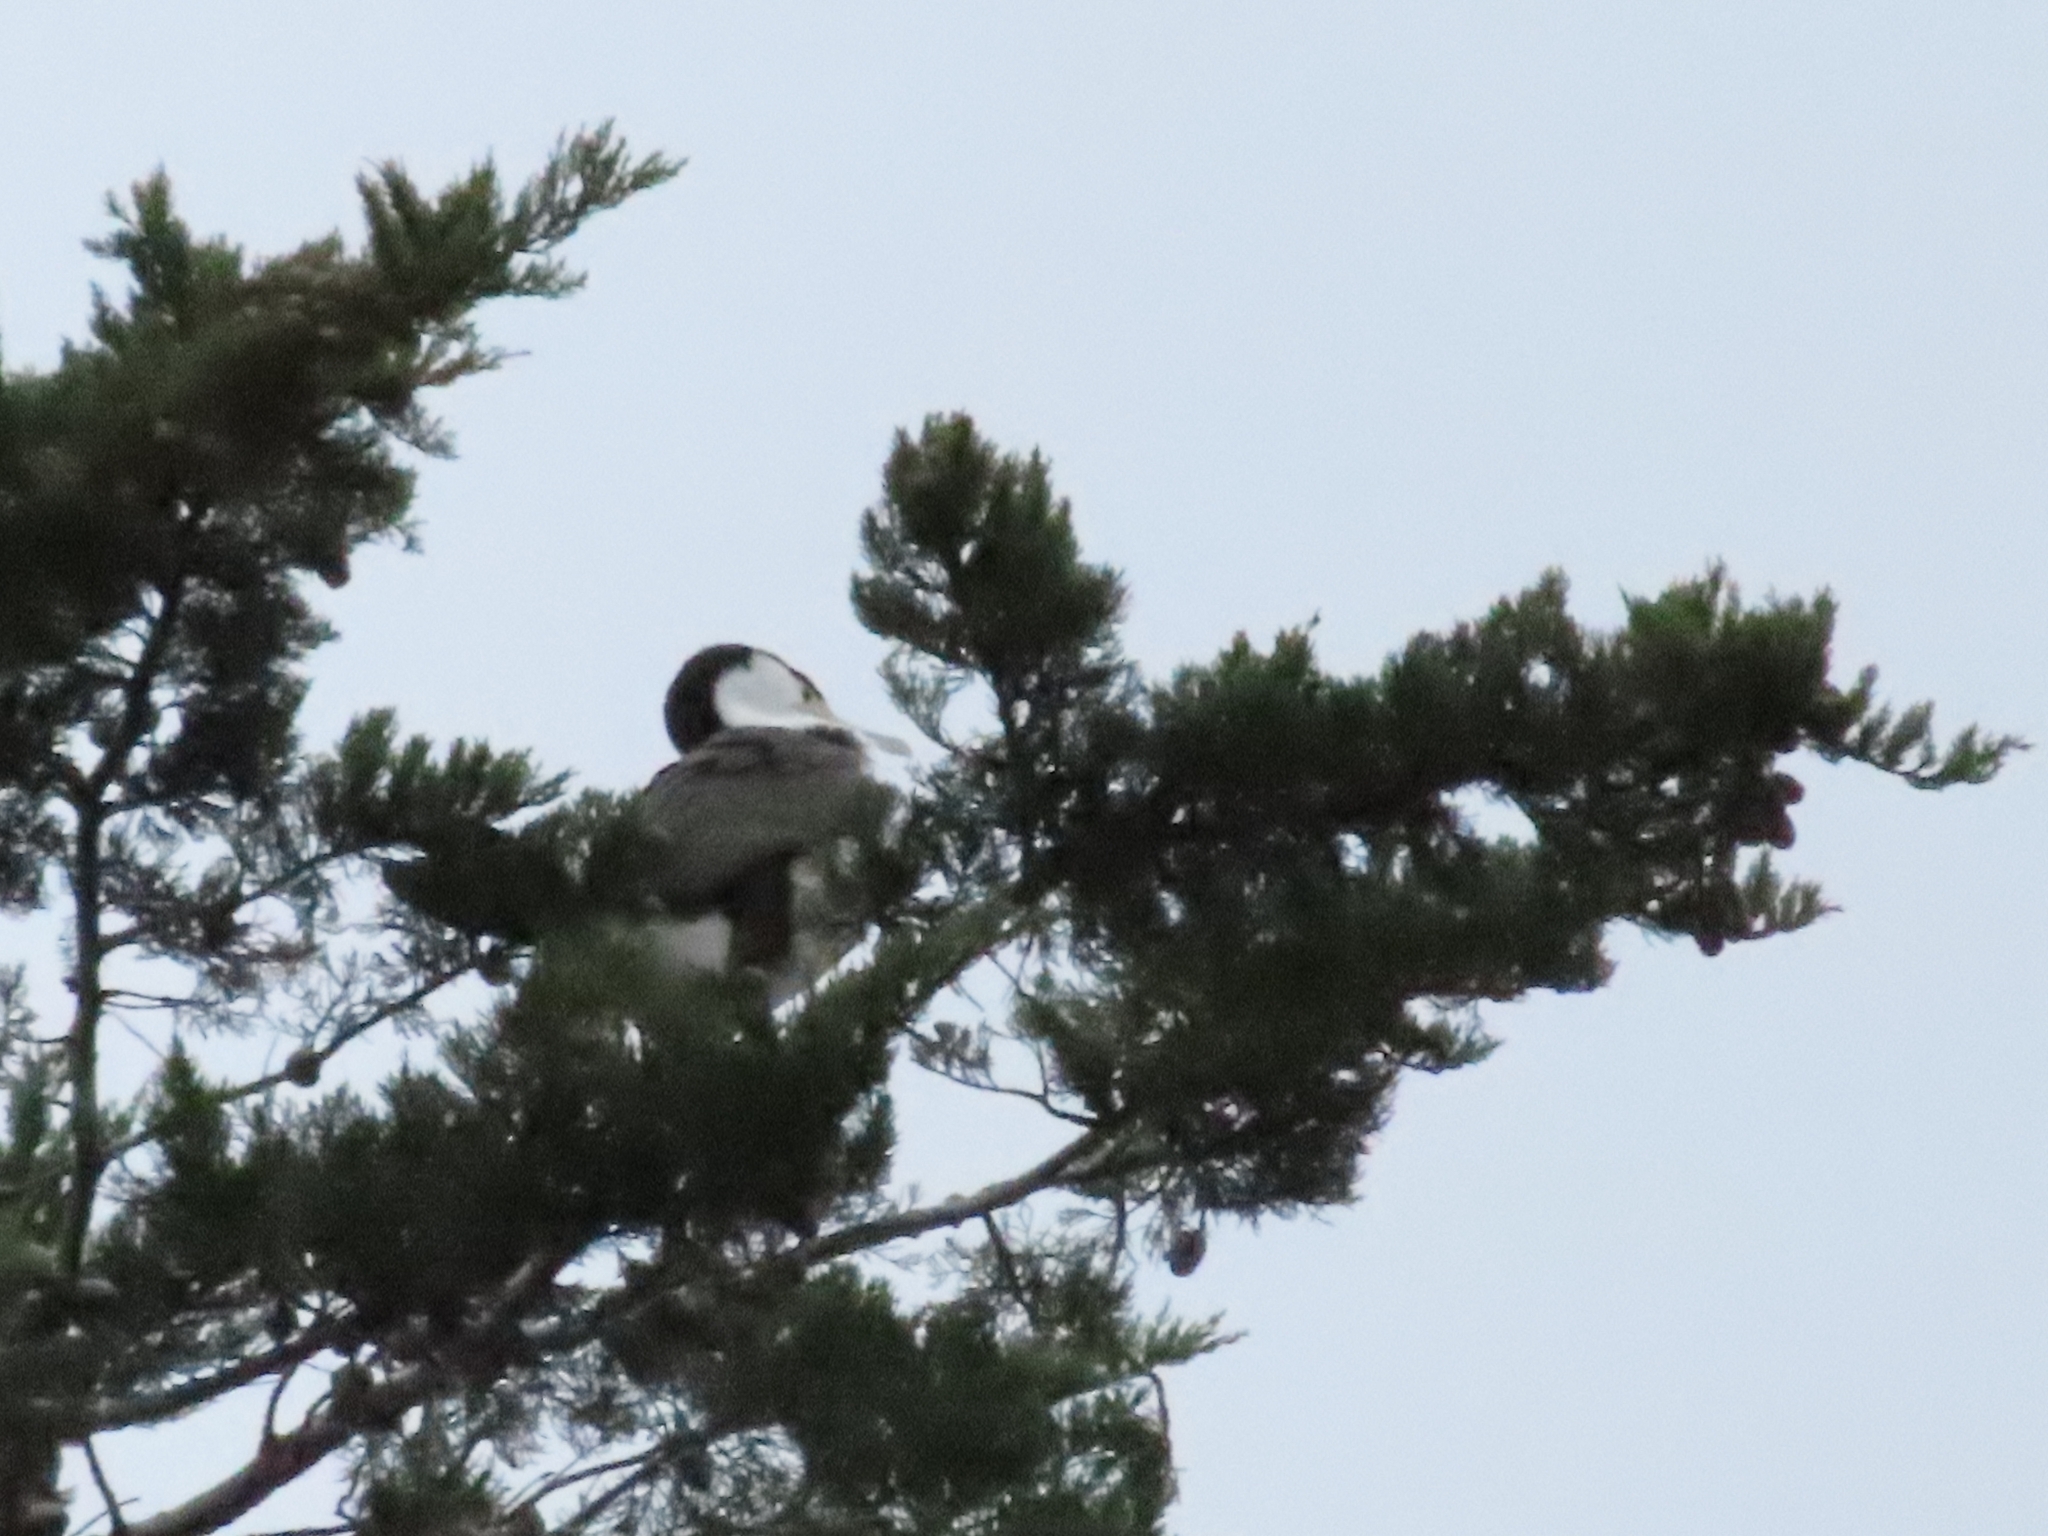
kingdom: Animalia
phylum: Chordata
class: Aves
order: Suliformes
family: Phalacrocoracidae
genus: Phalacrocorax
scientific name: Phalacrocorax varius
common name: Pied cormorant
